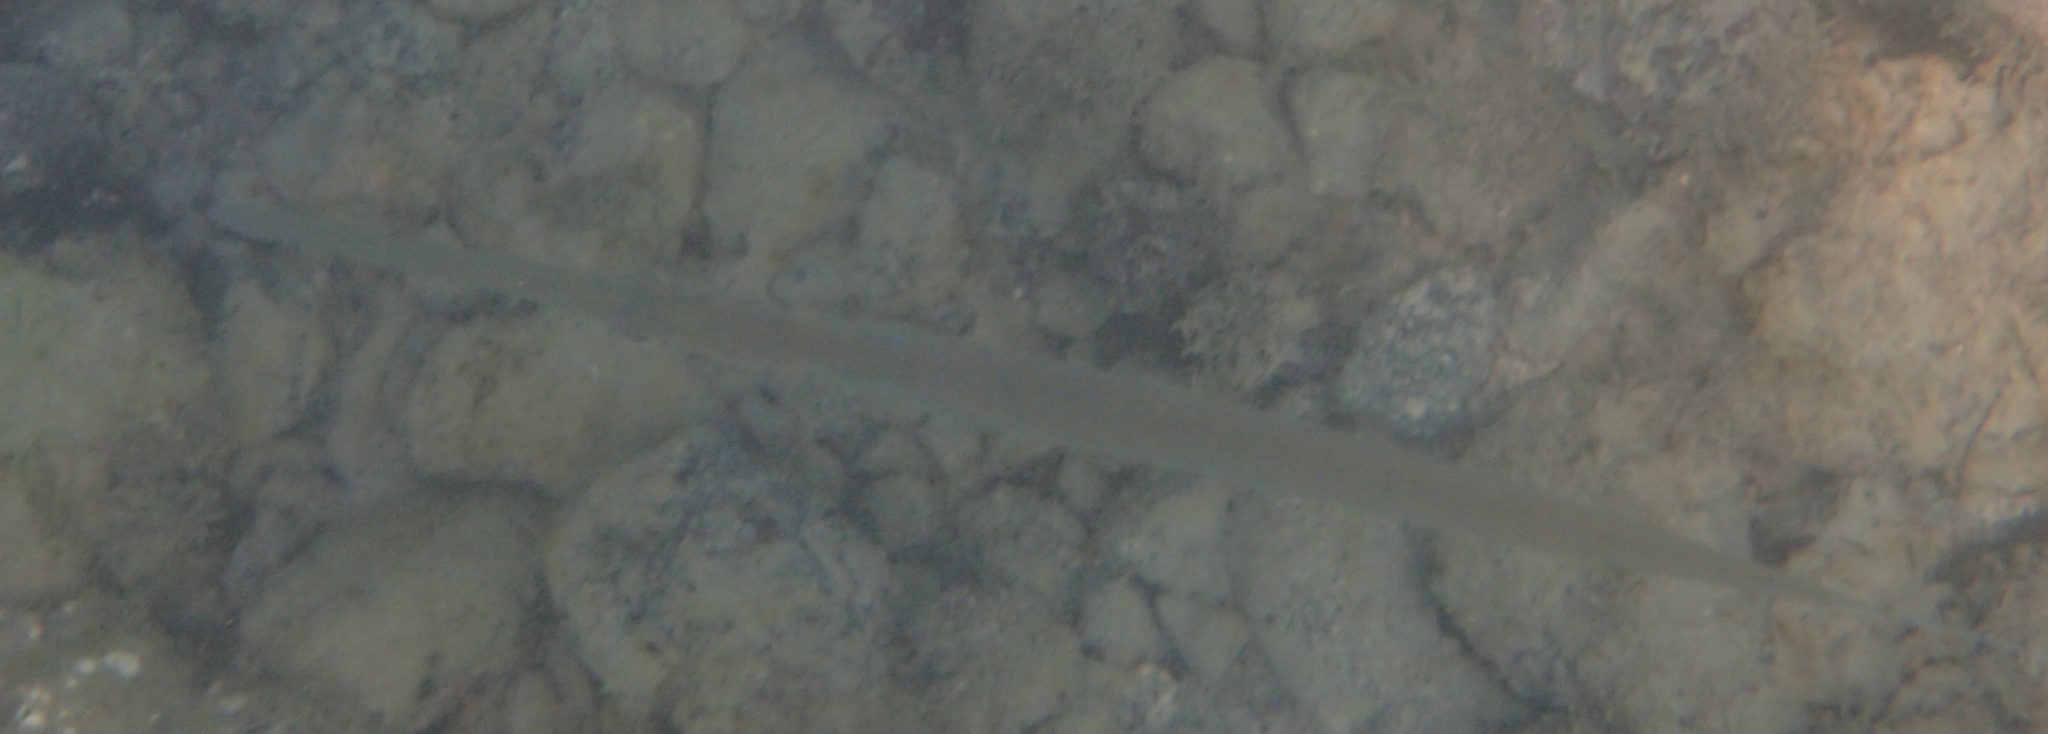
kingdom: Animalia
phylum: Chordata
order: Syngnathiformes
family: Fistulariidae
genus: Fistularia
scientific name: Fistularia commersonii
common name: Bluespotted cornetfish
